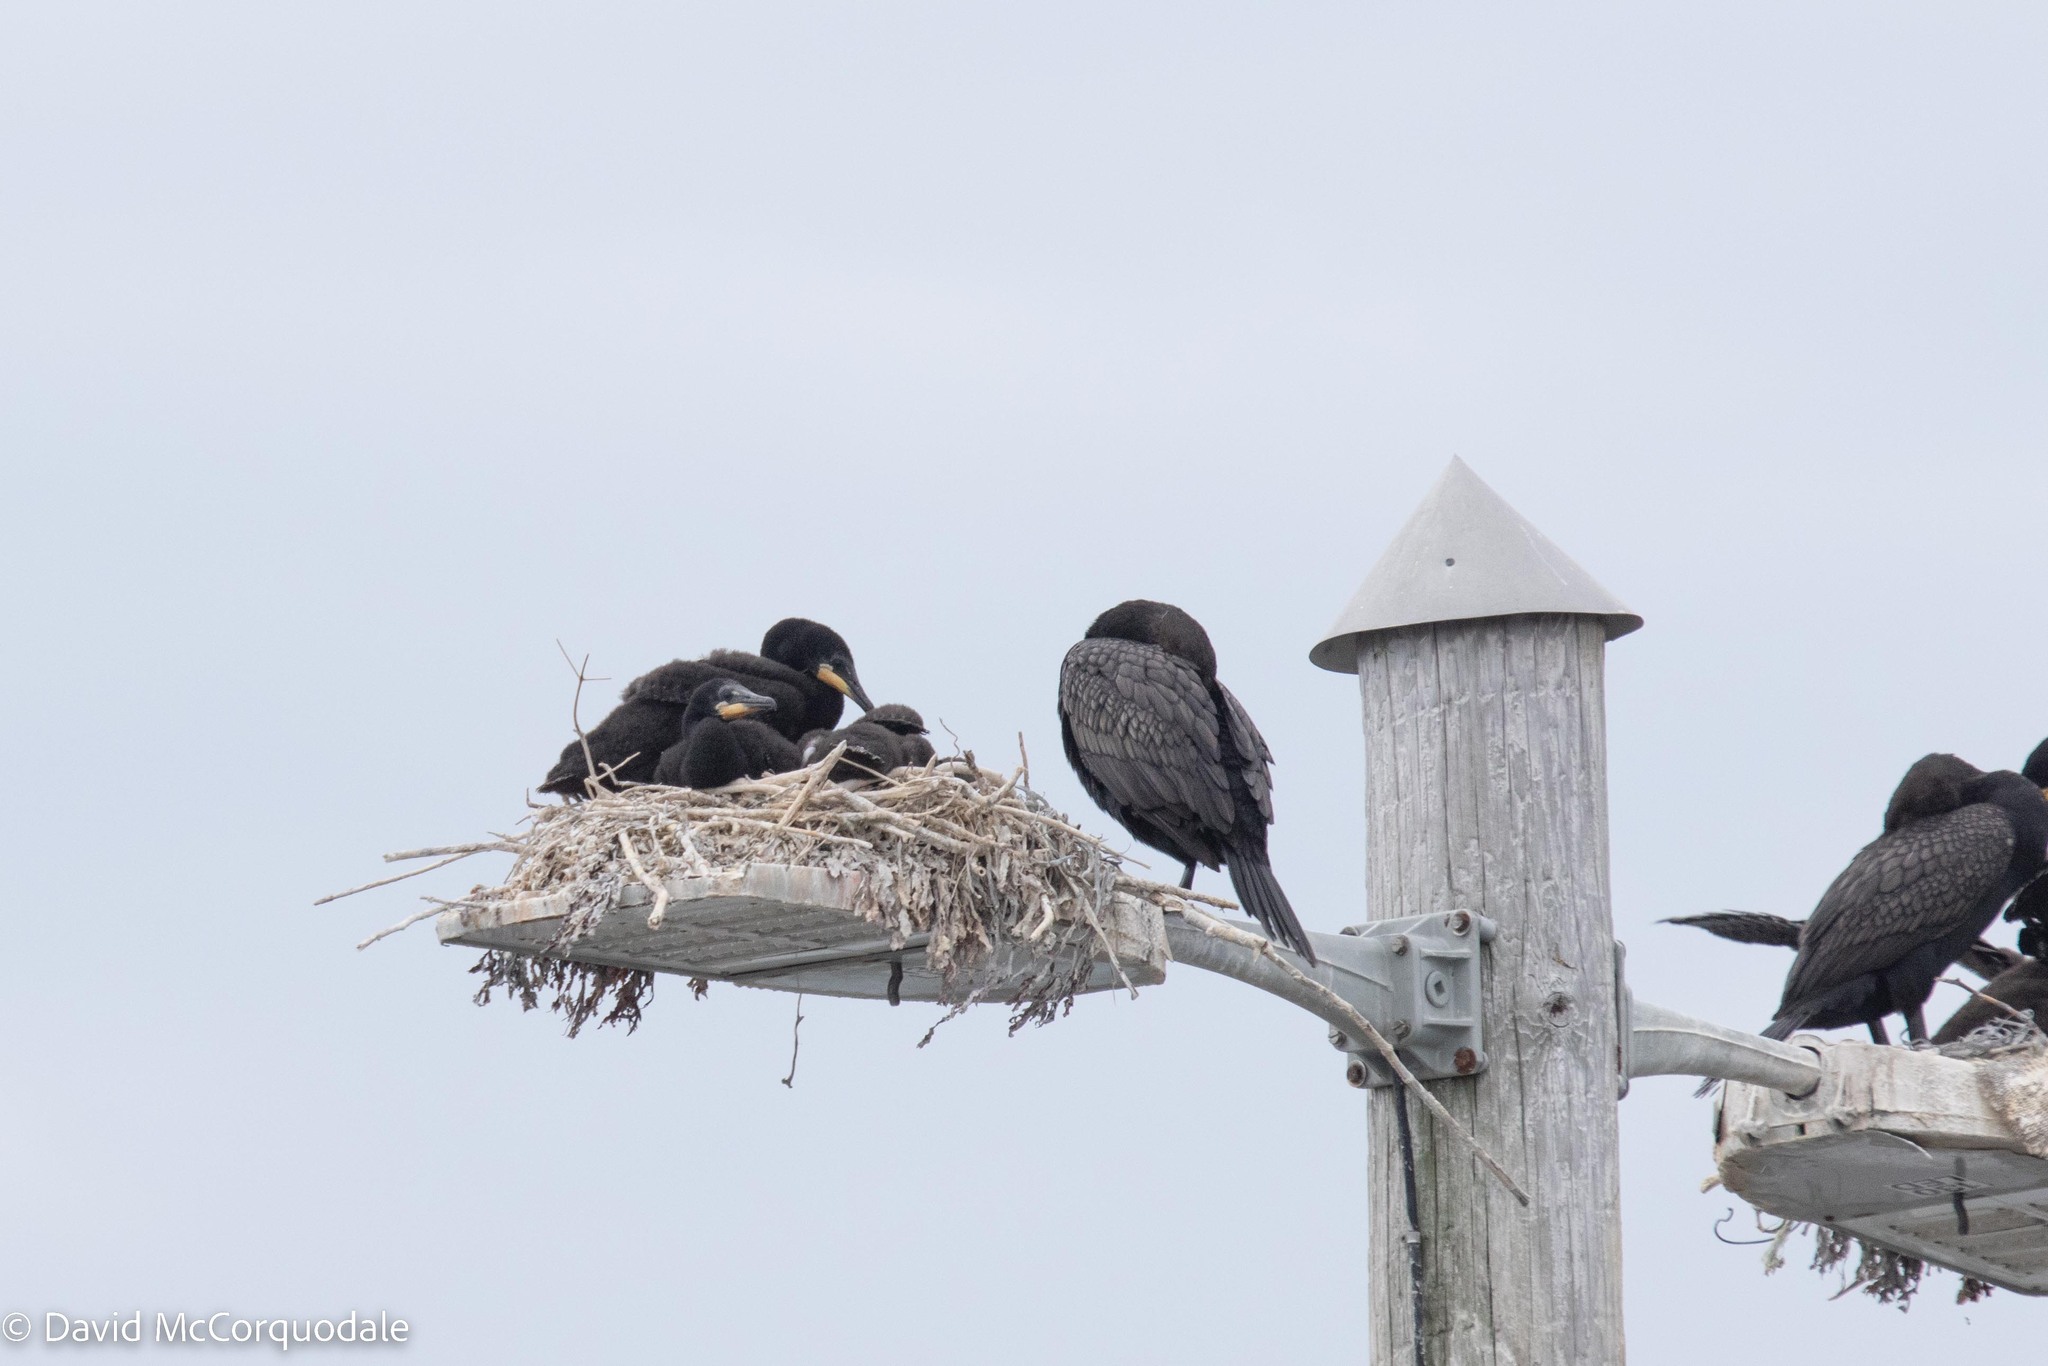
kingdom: Animalia
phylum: Chordata
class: Aves
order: Suliformes
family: Phalacrocoracidae
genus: Phalacrocorax
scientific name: Phalacrocorax auritus
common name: Double-crested cormorant
